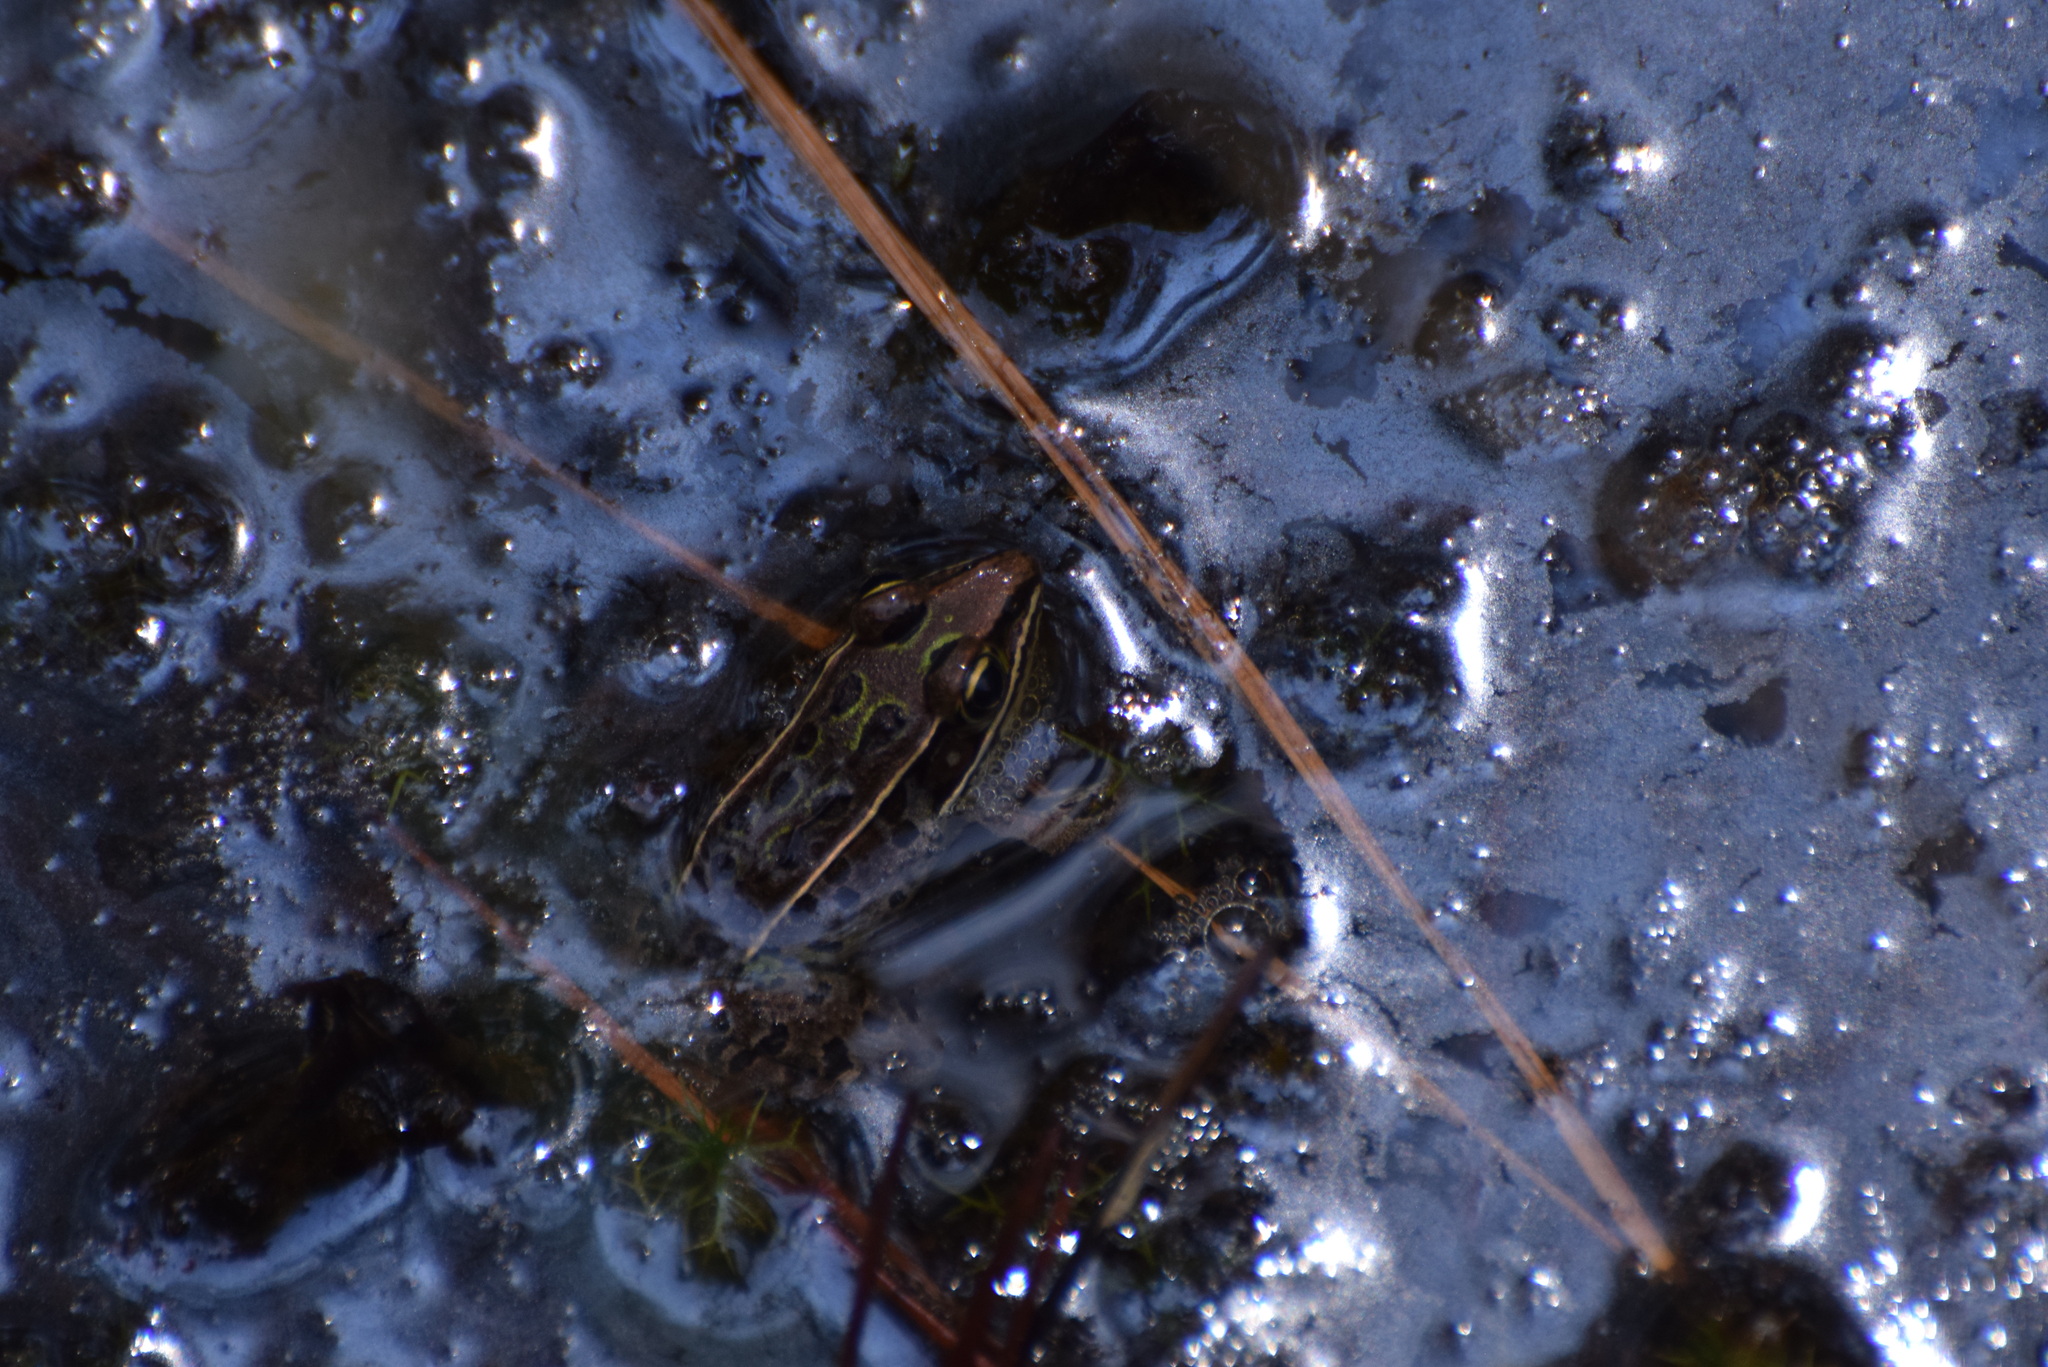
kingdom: Animalia
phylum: Chordata
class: Amphibia
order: Anura
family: Ranidae
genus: Lithobates
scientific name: Lithobates sphenocephalus
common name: Southern leopard frog
